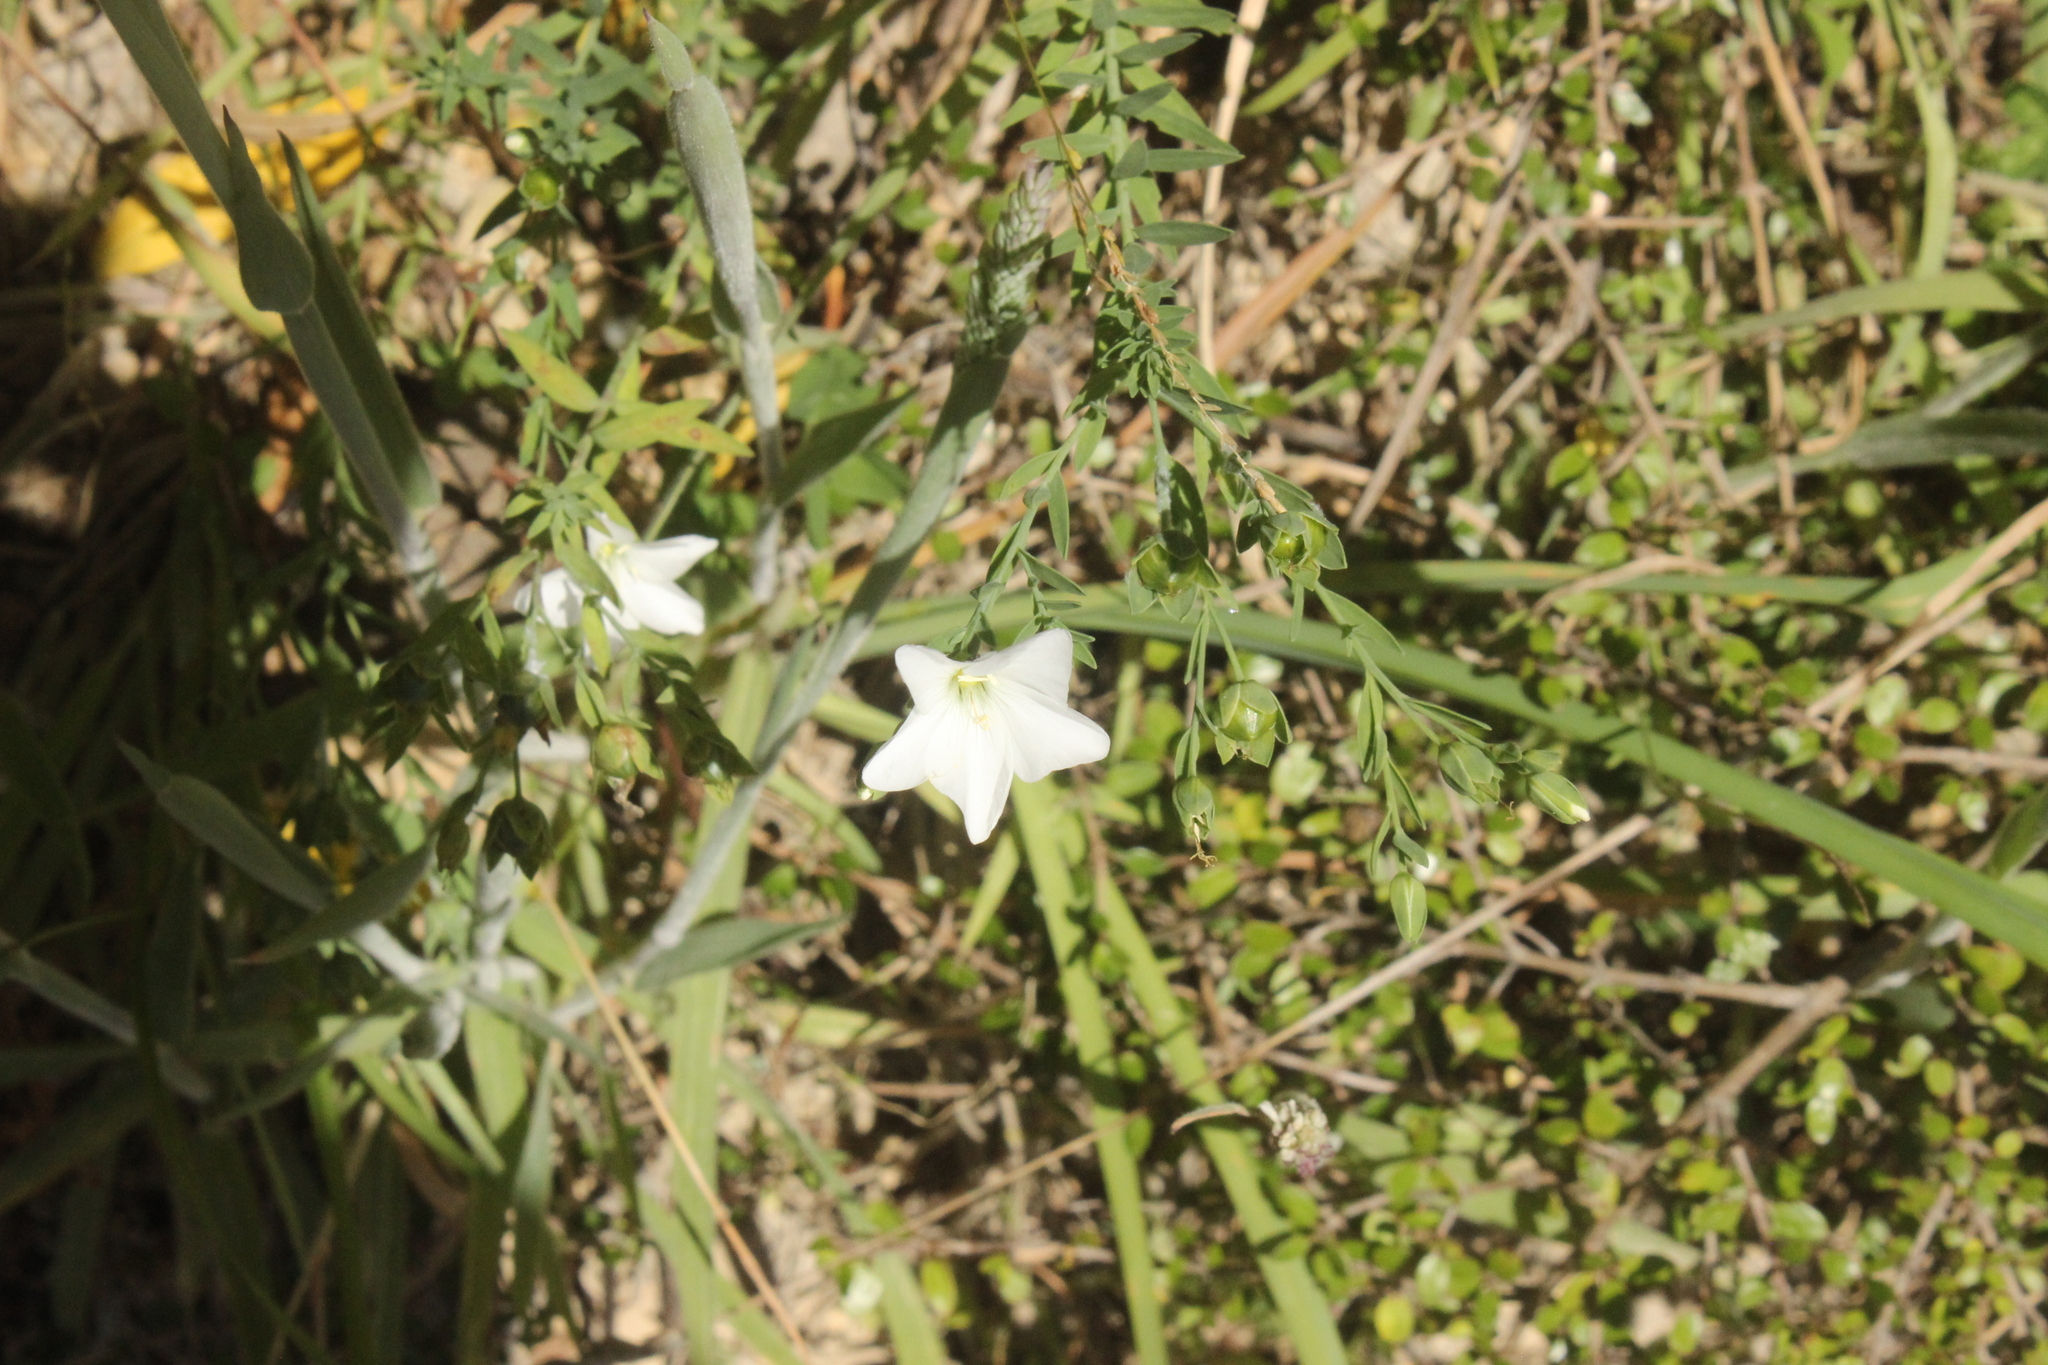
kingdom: Plantae
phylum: Tracheophyta
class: Magnoliopsida
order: Malpighiales
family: Linaceae
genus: Linum
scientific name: Linum monogynum
